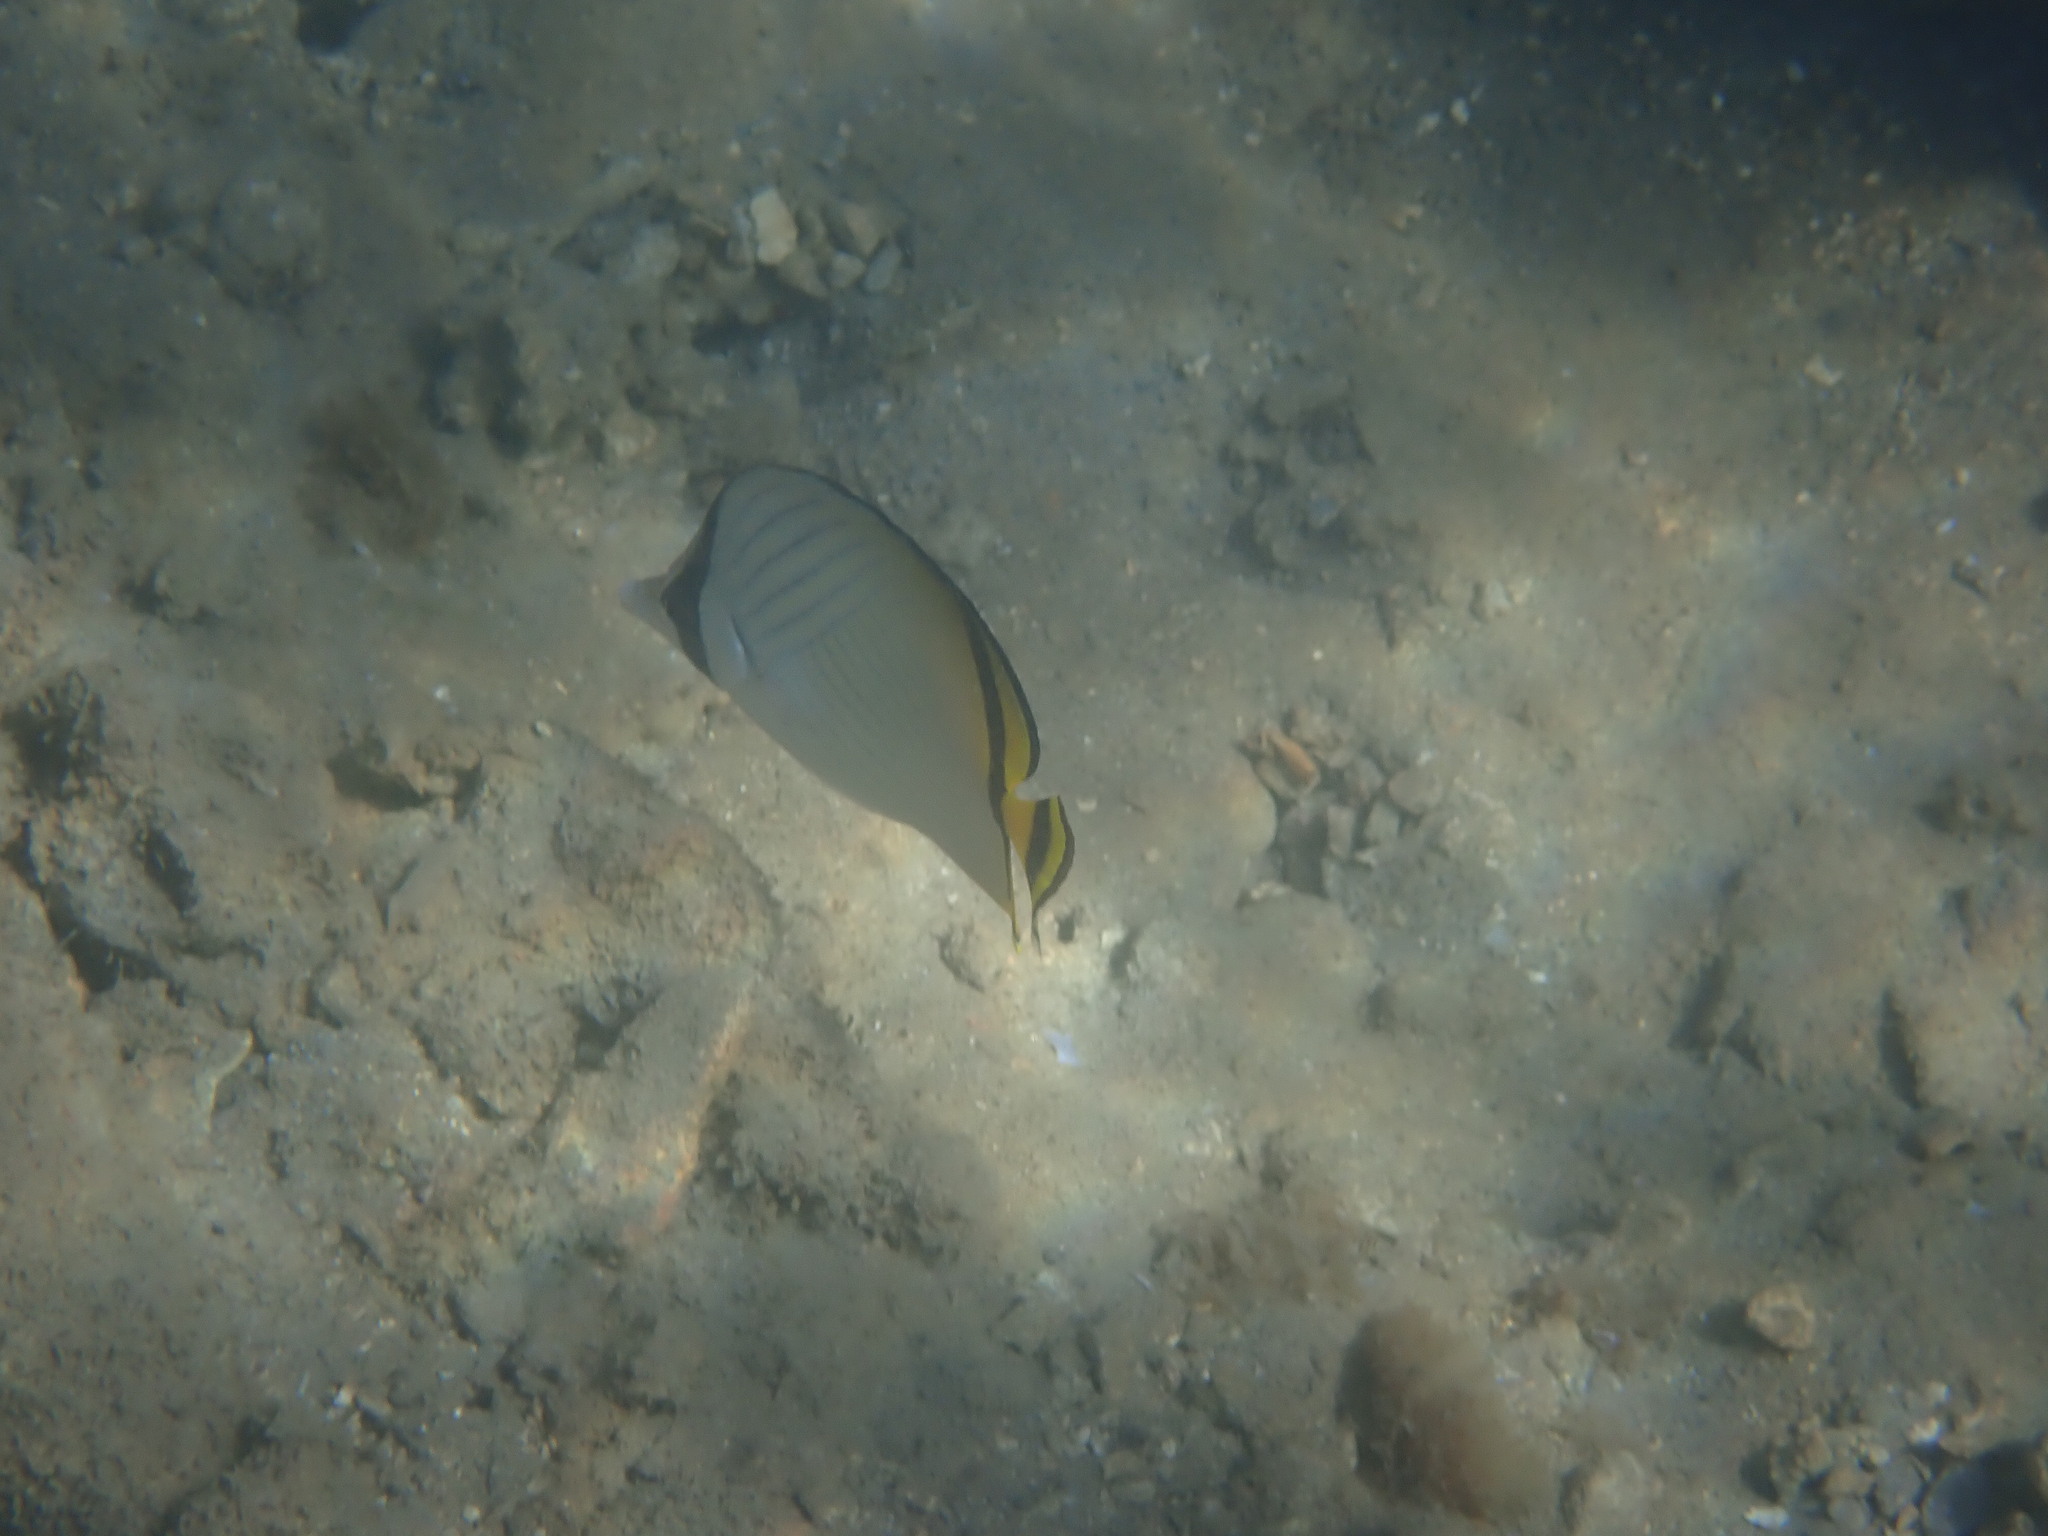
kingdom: Animalia
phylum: Chordata
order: Perciformes
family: Chaetodontidae
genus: Chaetodon
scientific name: Chaetodon vagabundus
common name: Vagabond butterflyfish
